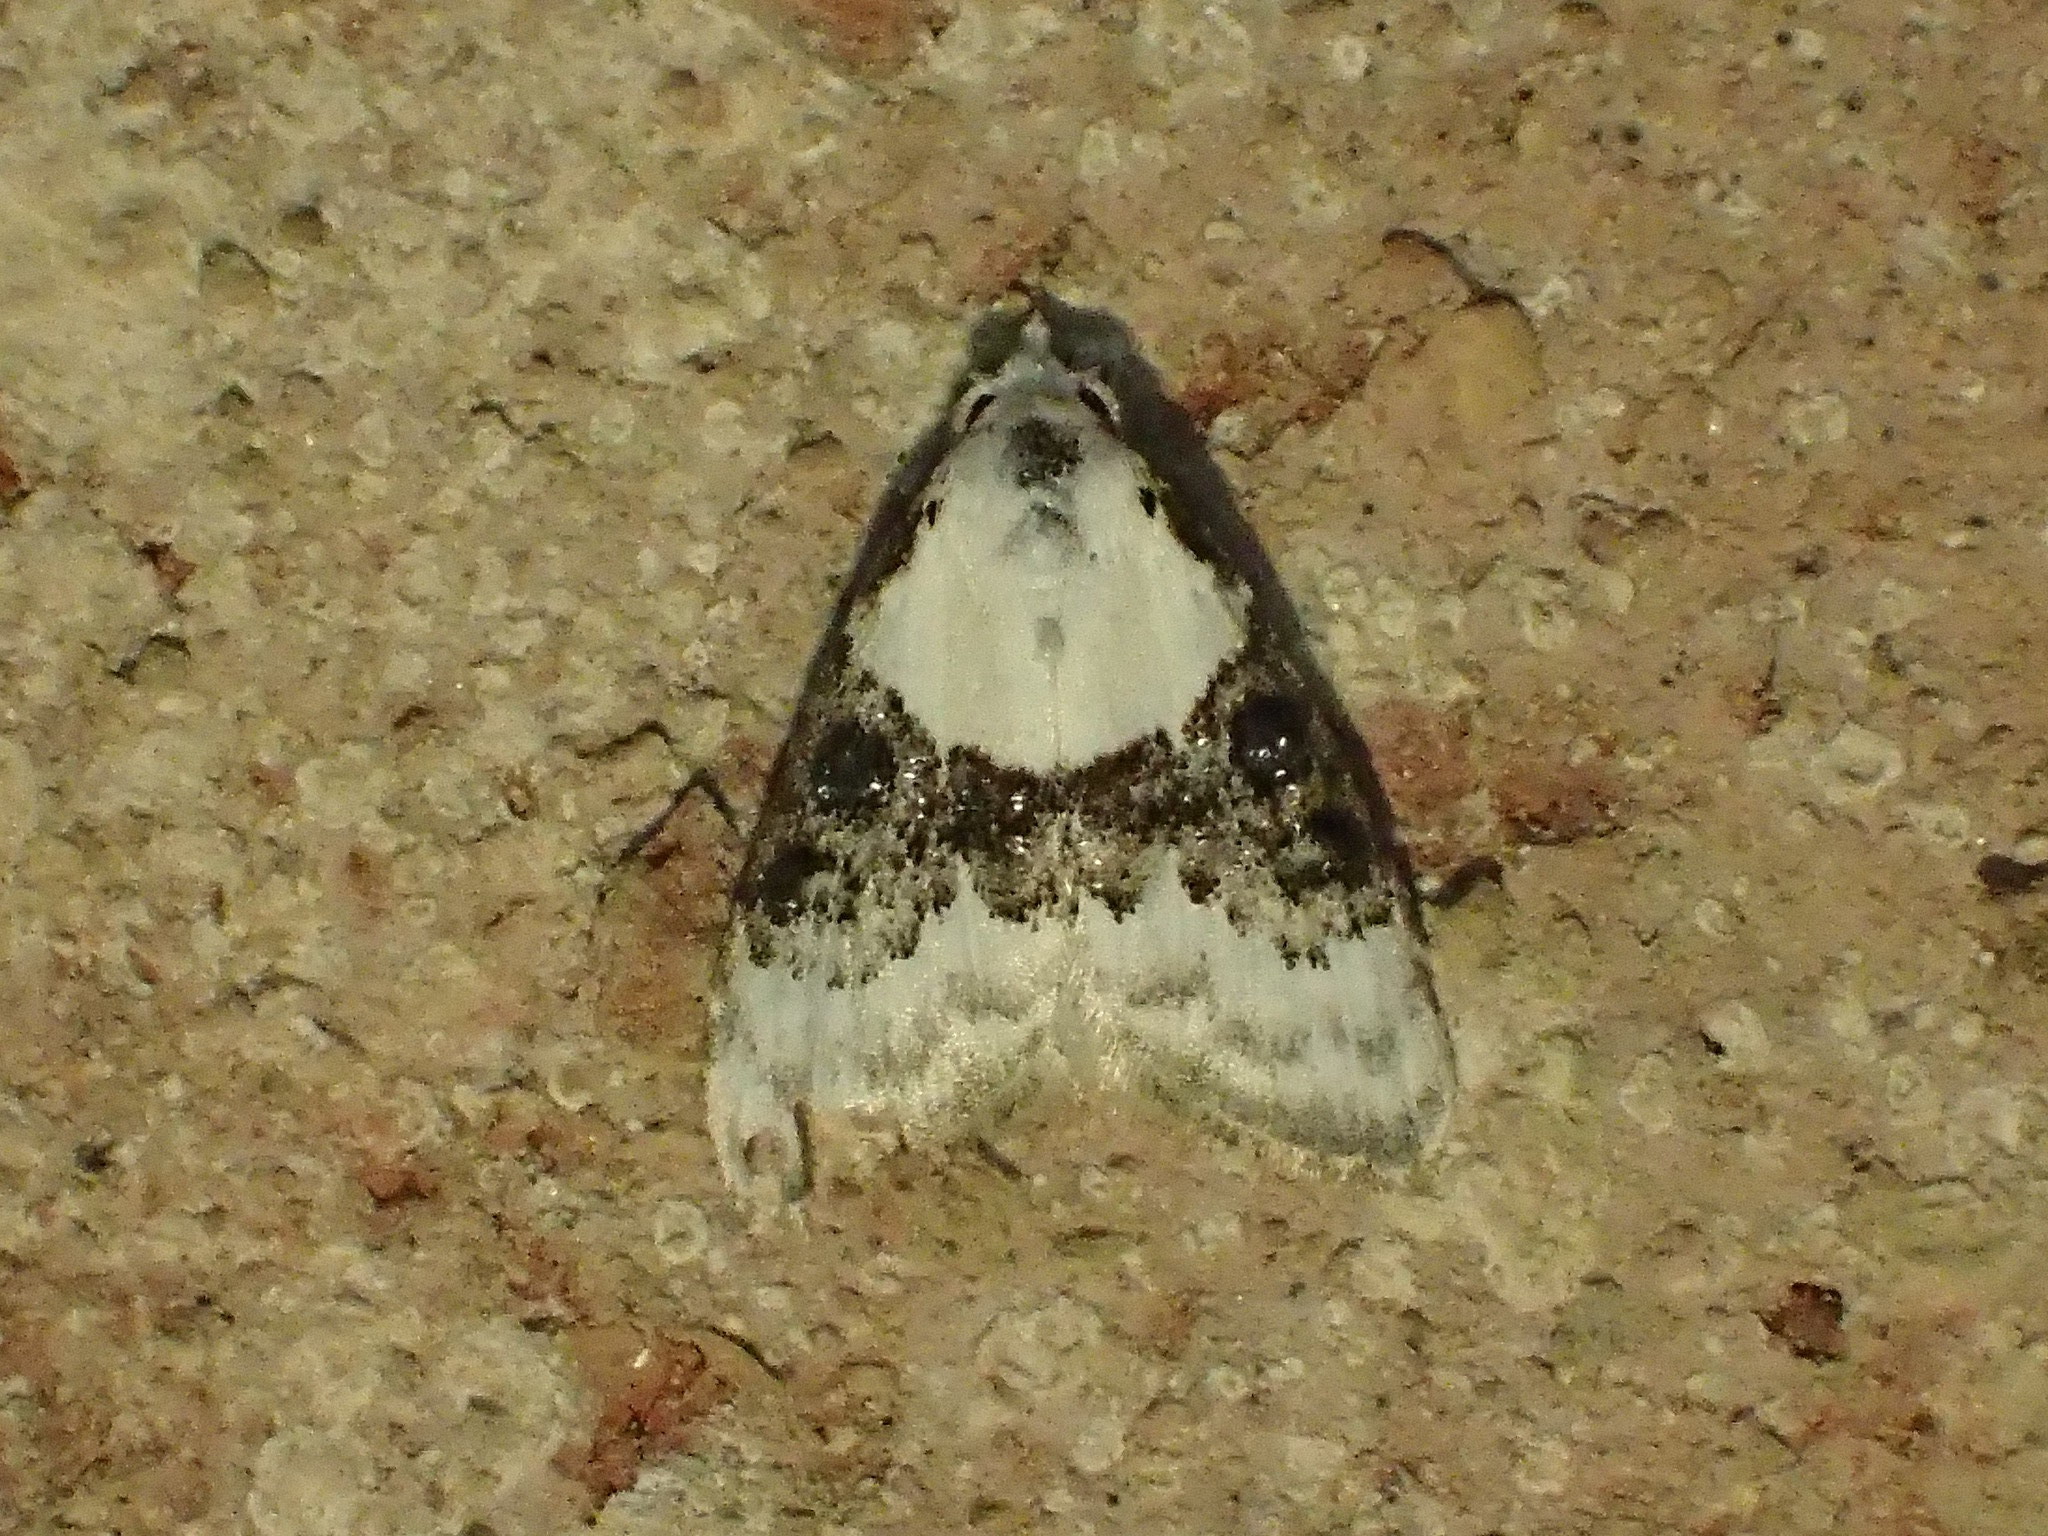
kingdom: Animalia
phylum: Arthropoda
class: Insecta
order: Lepidoptera
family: Nolidae
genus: Nola
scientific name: Nola pustulata
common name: Sharp-blotched nola moth
